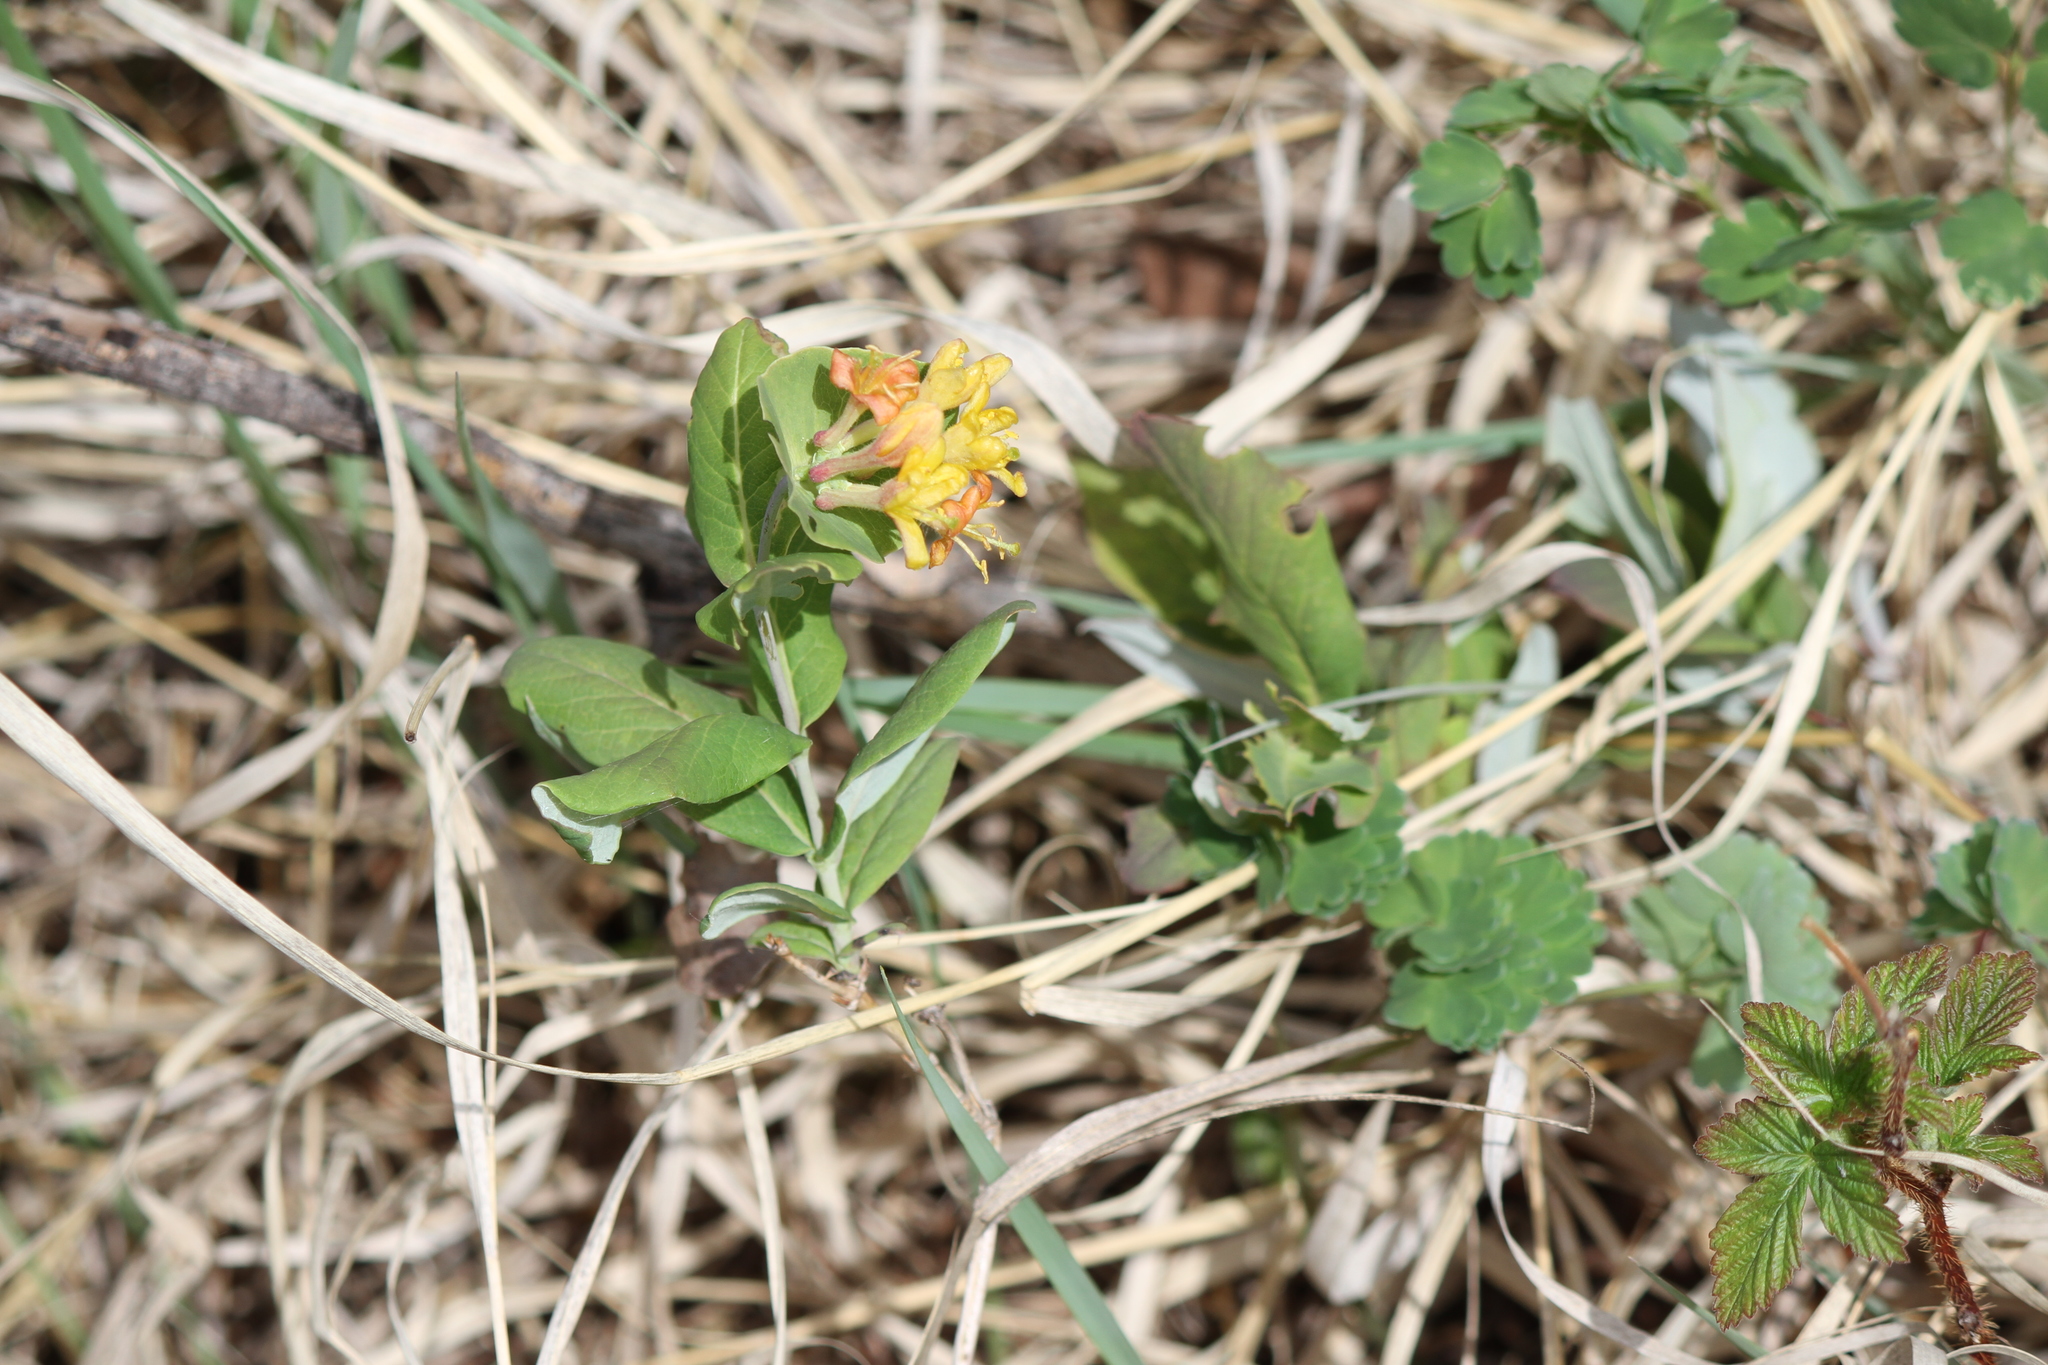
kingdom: Plantae
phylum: Tracheophyta
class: Magnoliopsida
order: Dipsacales
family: Caprifoliaceae
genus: Lonicera
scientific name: Lonicera dioica
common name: Limber honeysuckle
